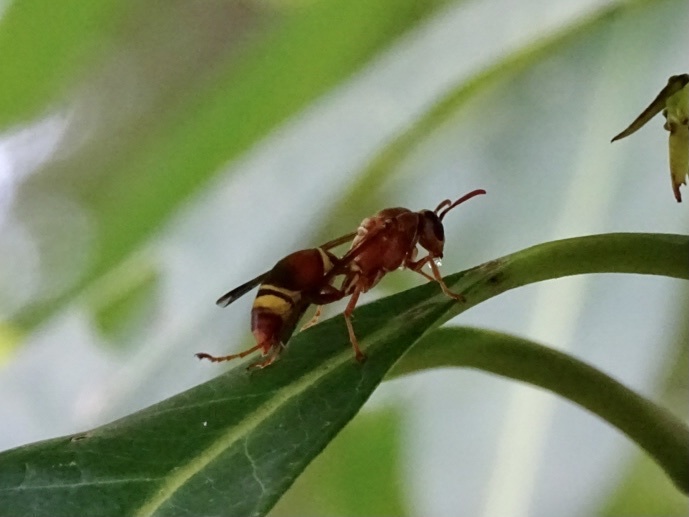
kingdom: Animalia
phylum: Arthropoda
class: Insecta
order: Hymenoptera
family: Eumenidae
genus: Polistes
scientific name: Polistes stigma
